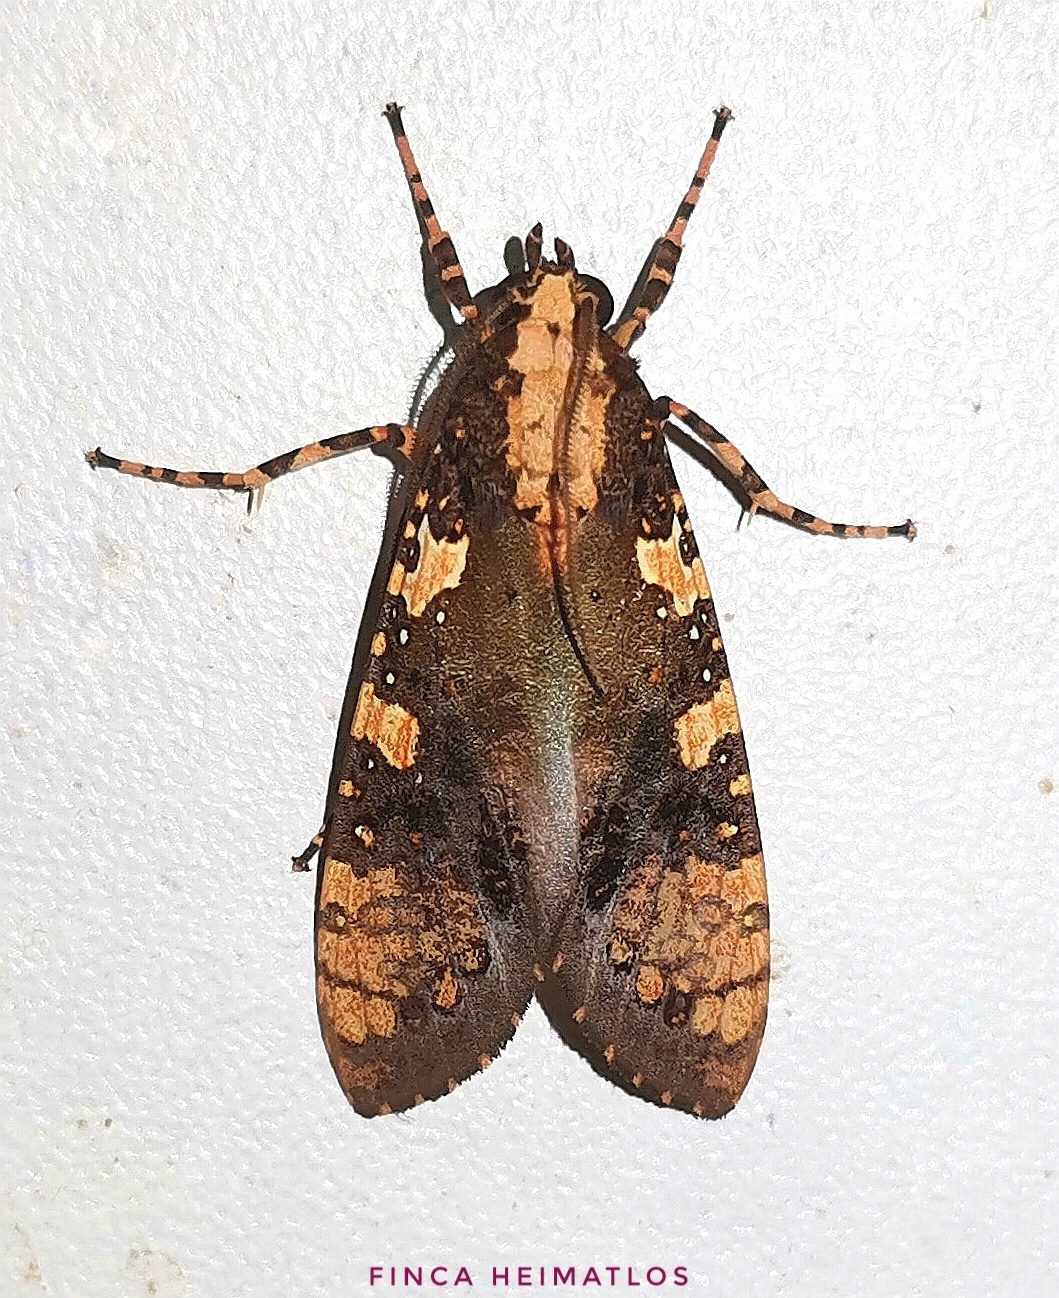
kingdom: Animalia
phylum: Arthropoda
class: Insecta
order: Lepidoptera
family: Erebidae
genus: Cresera
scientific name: Cresera ilus
